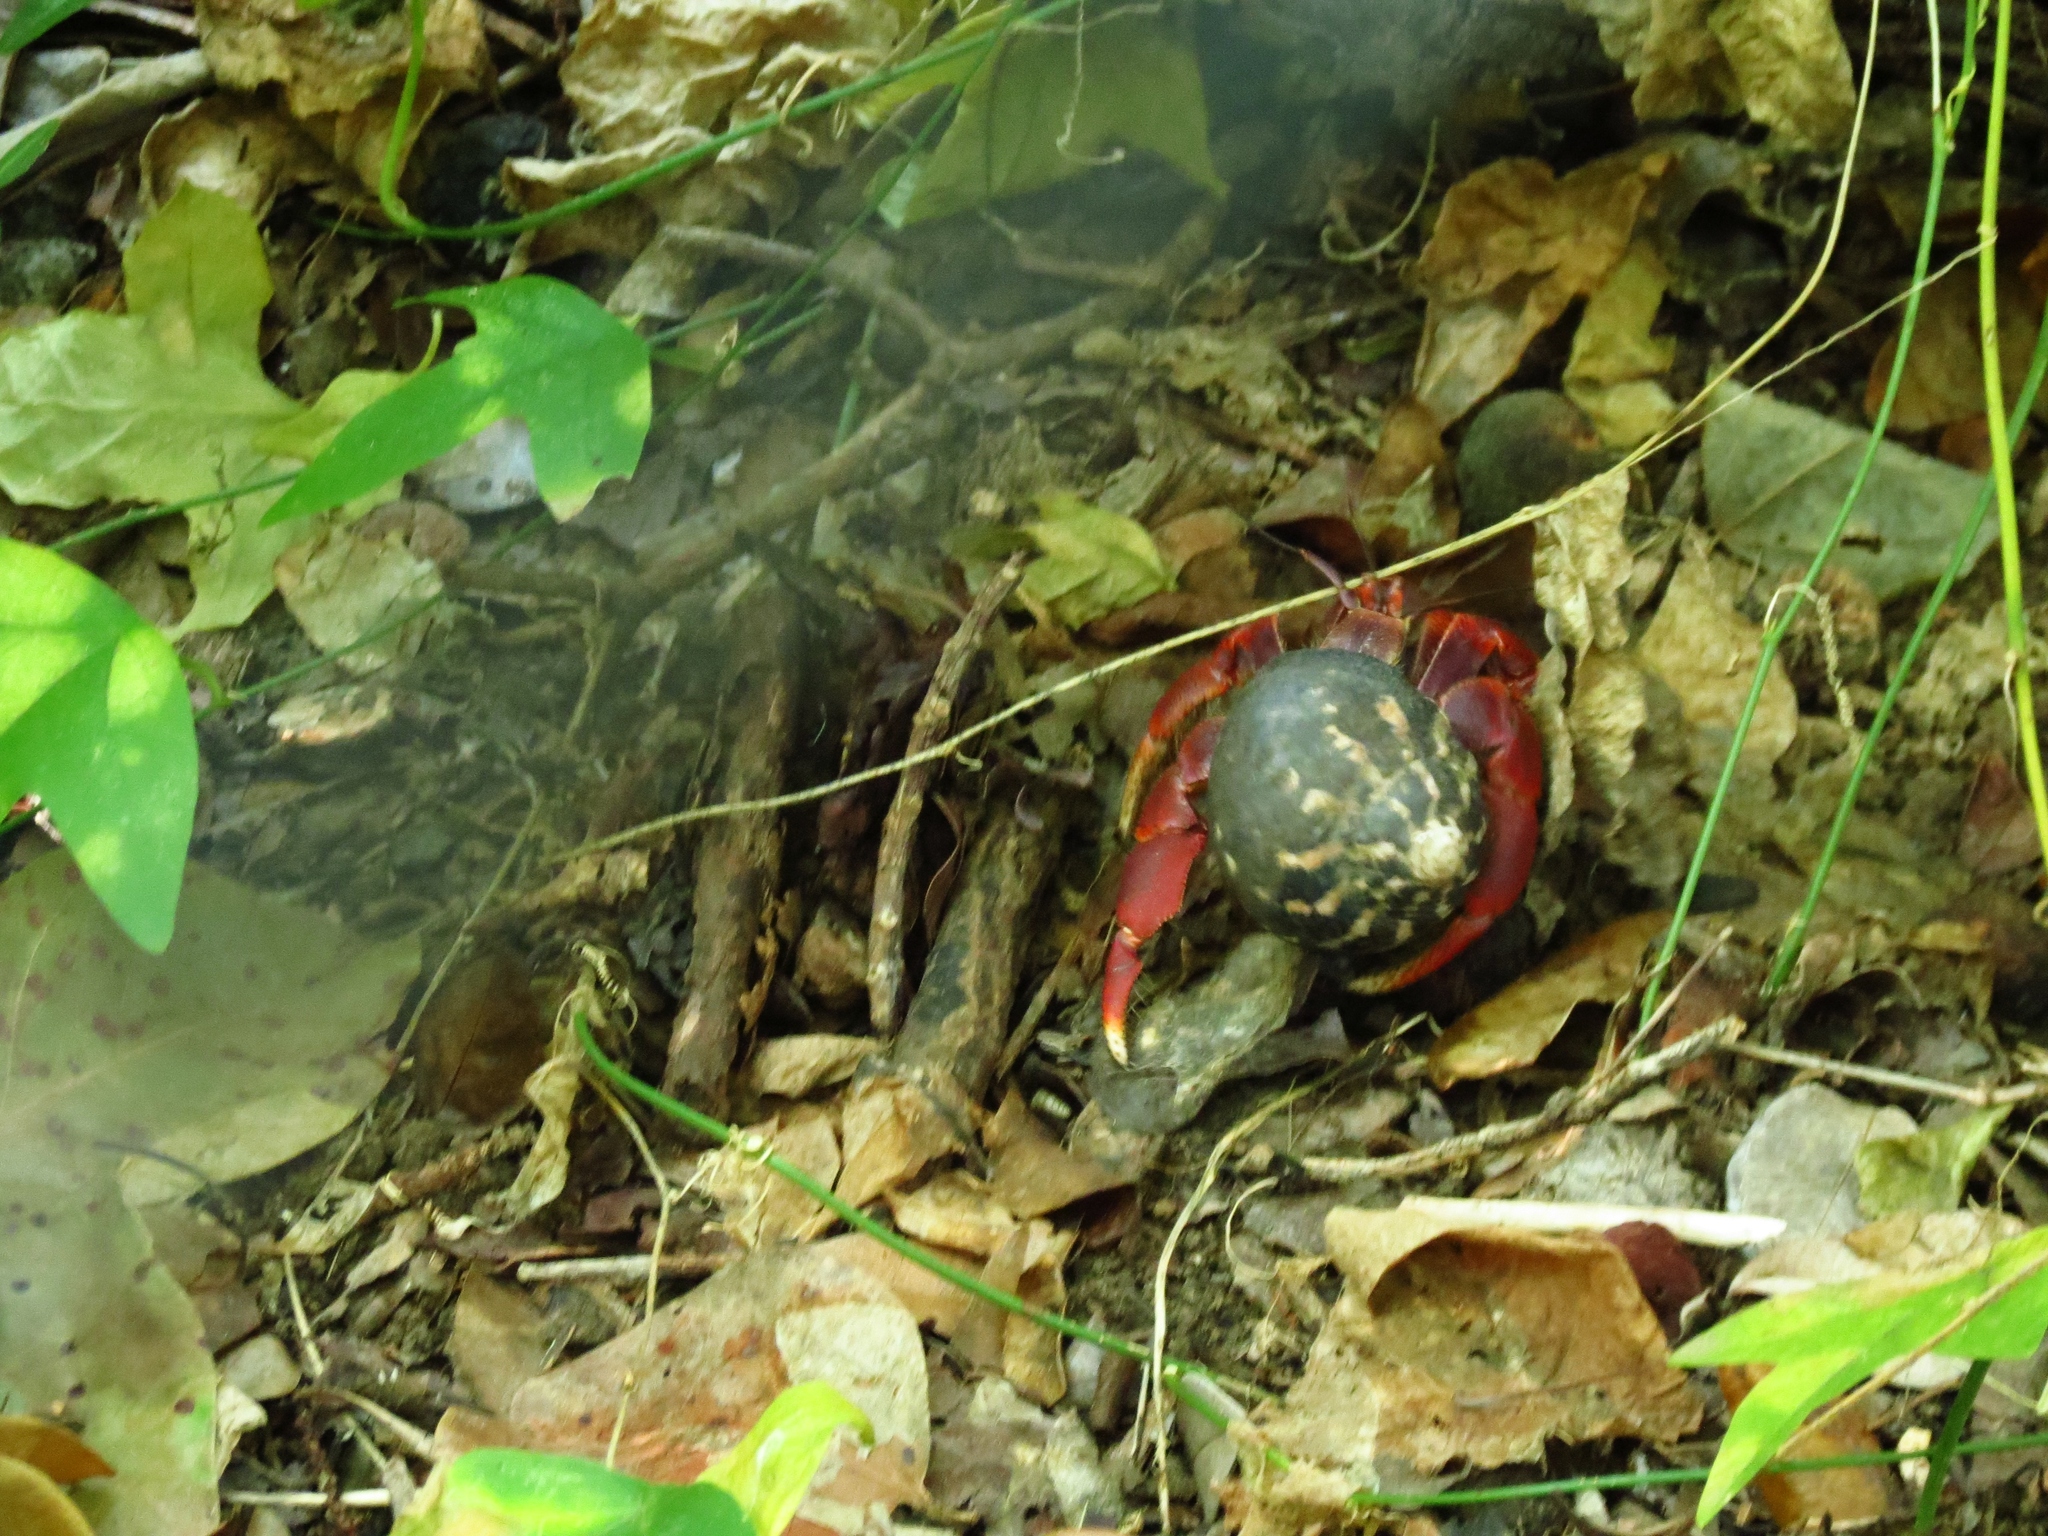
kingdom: Animalia
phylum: Arthropoda
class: Malacostraca
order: Decapoda
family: Coenobitidae
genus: Coenobita
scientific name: Coenobita clypeatus
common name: Caribbean hermit crab
